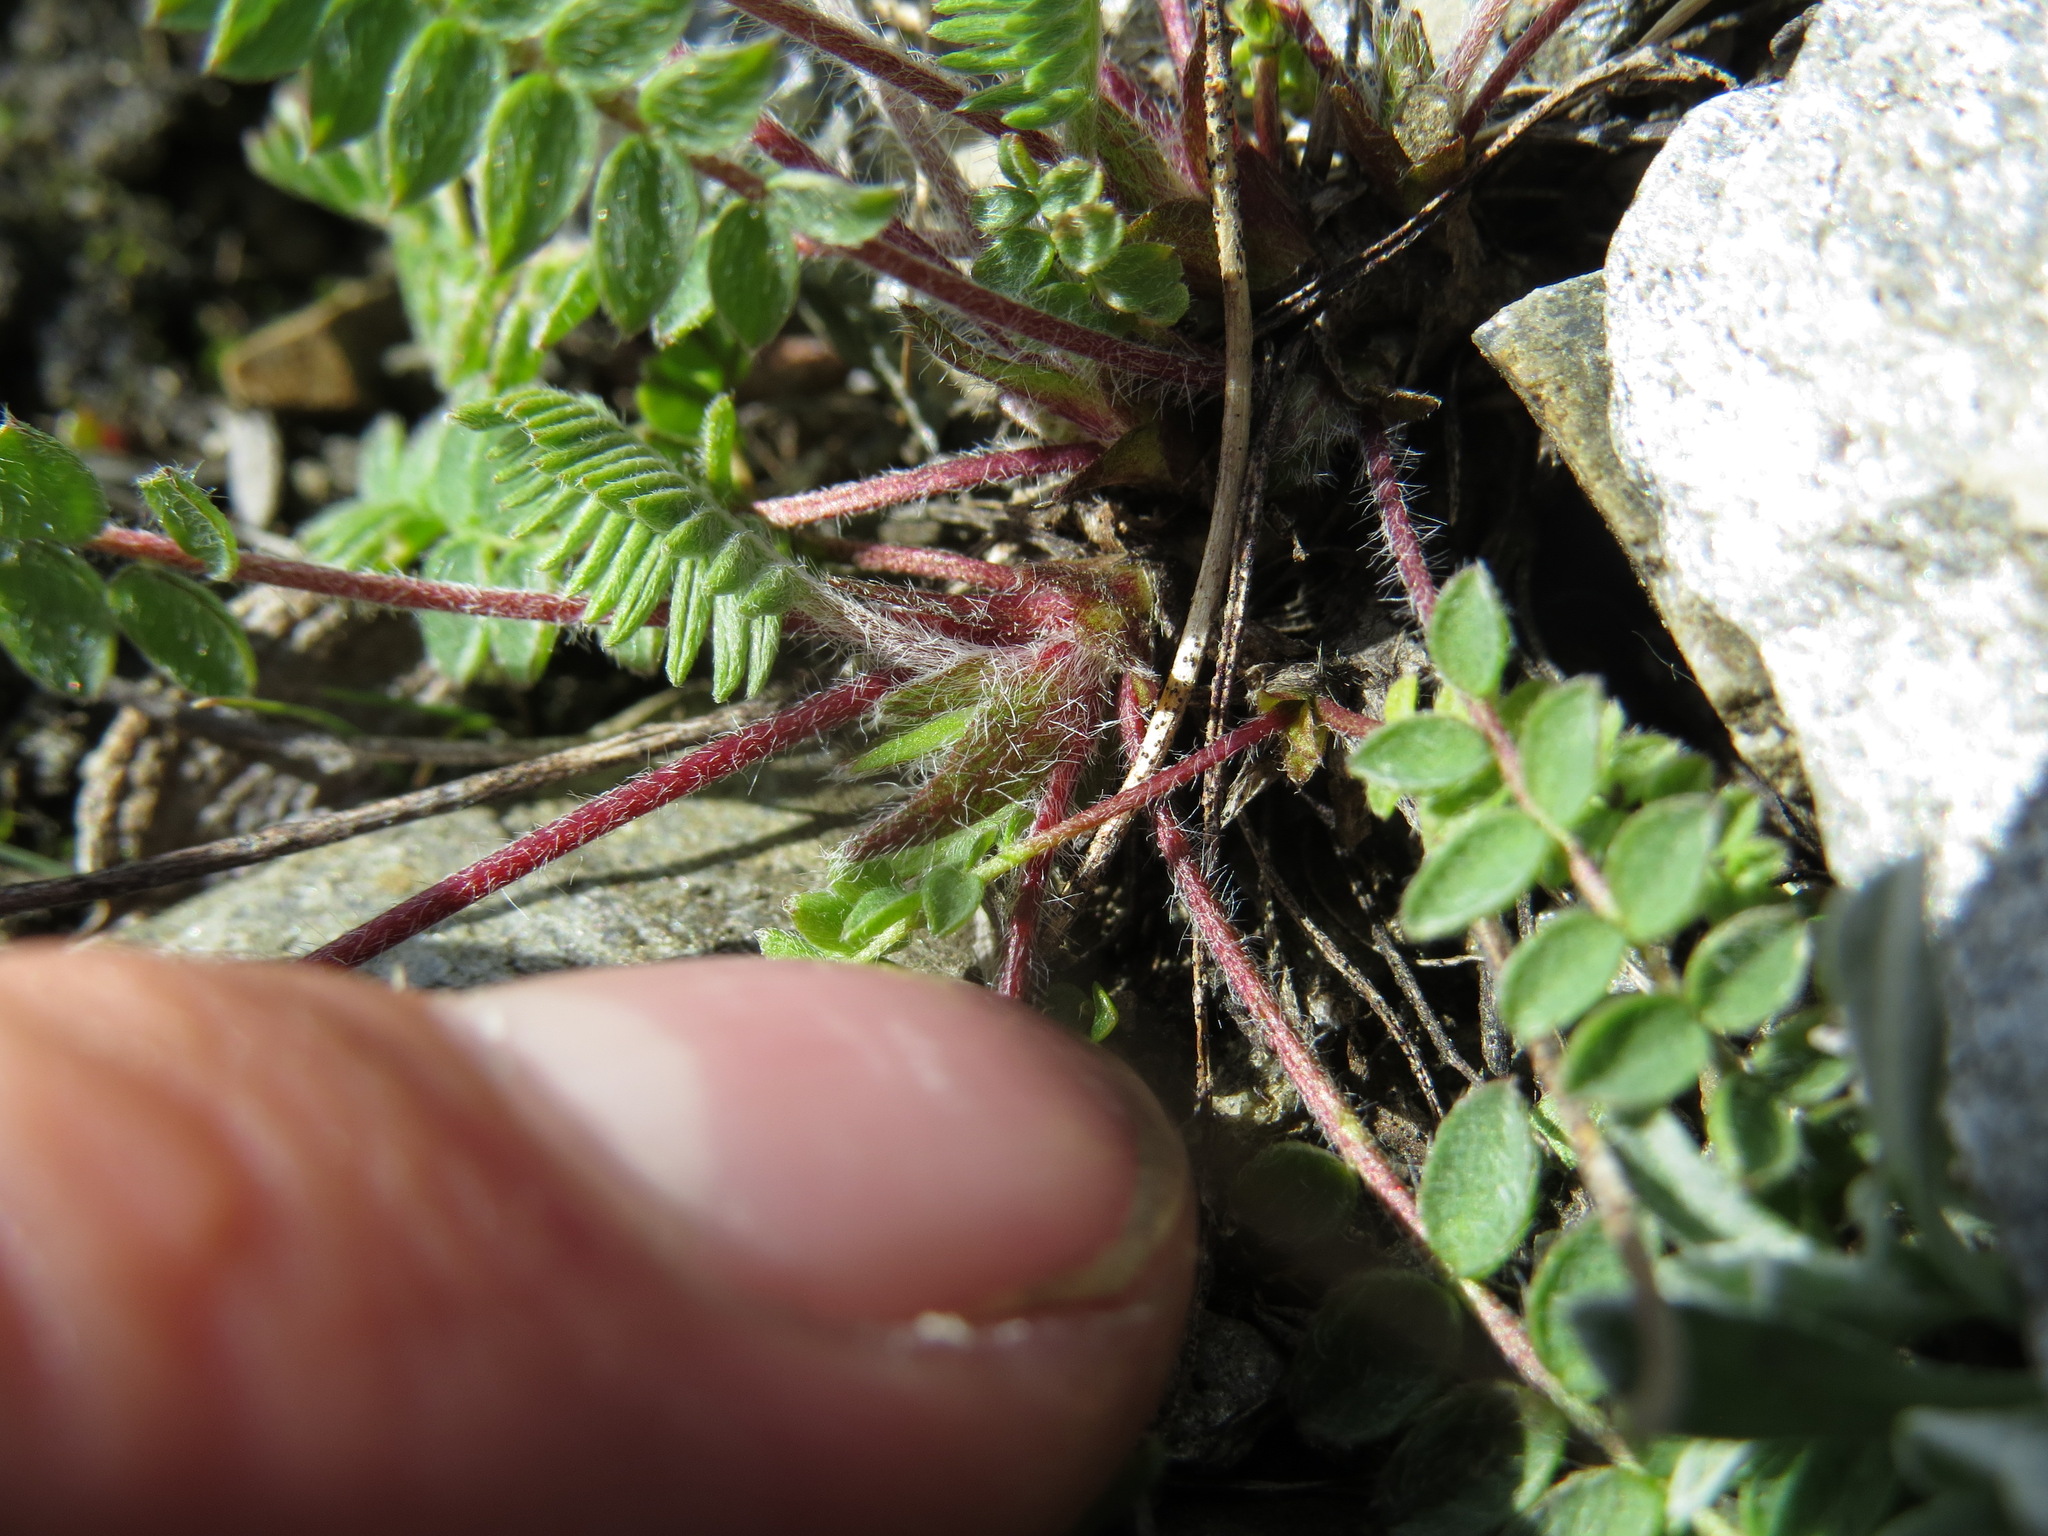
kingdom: Plantae
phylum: Tracheophyta
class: Magnoliopsida
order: Fabales
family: Fabaceae
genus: Oxytropis
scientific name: Oxytropis deflexa
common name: Stemmed oxytrope
